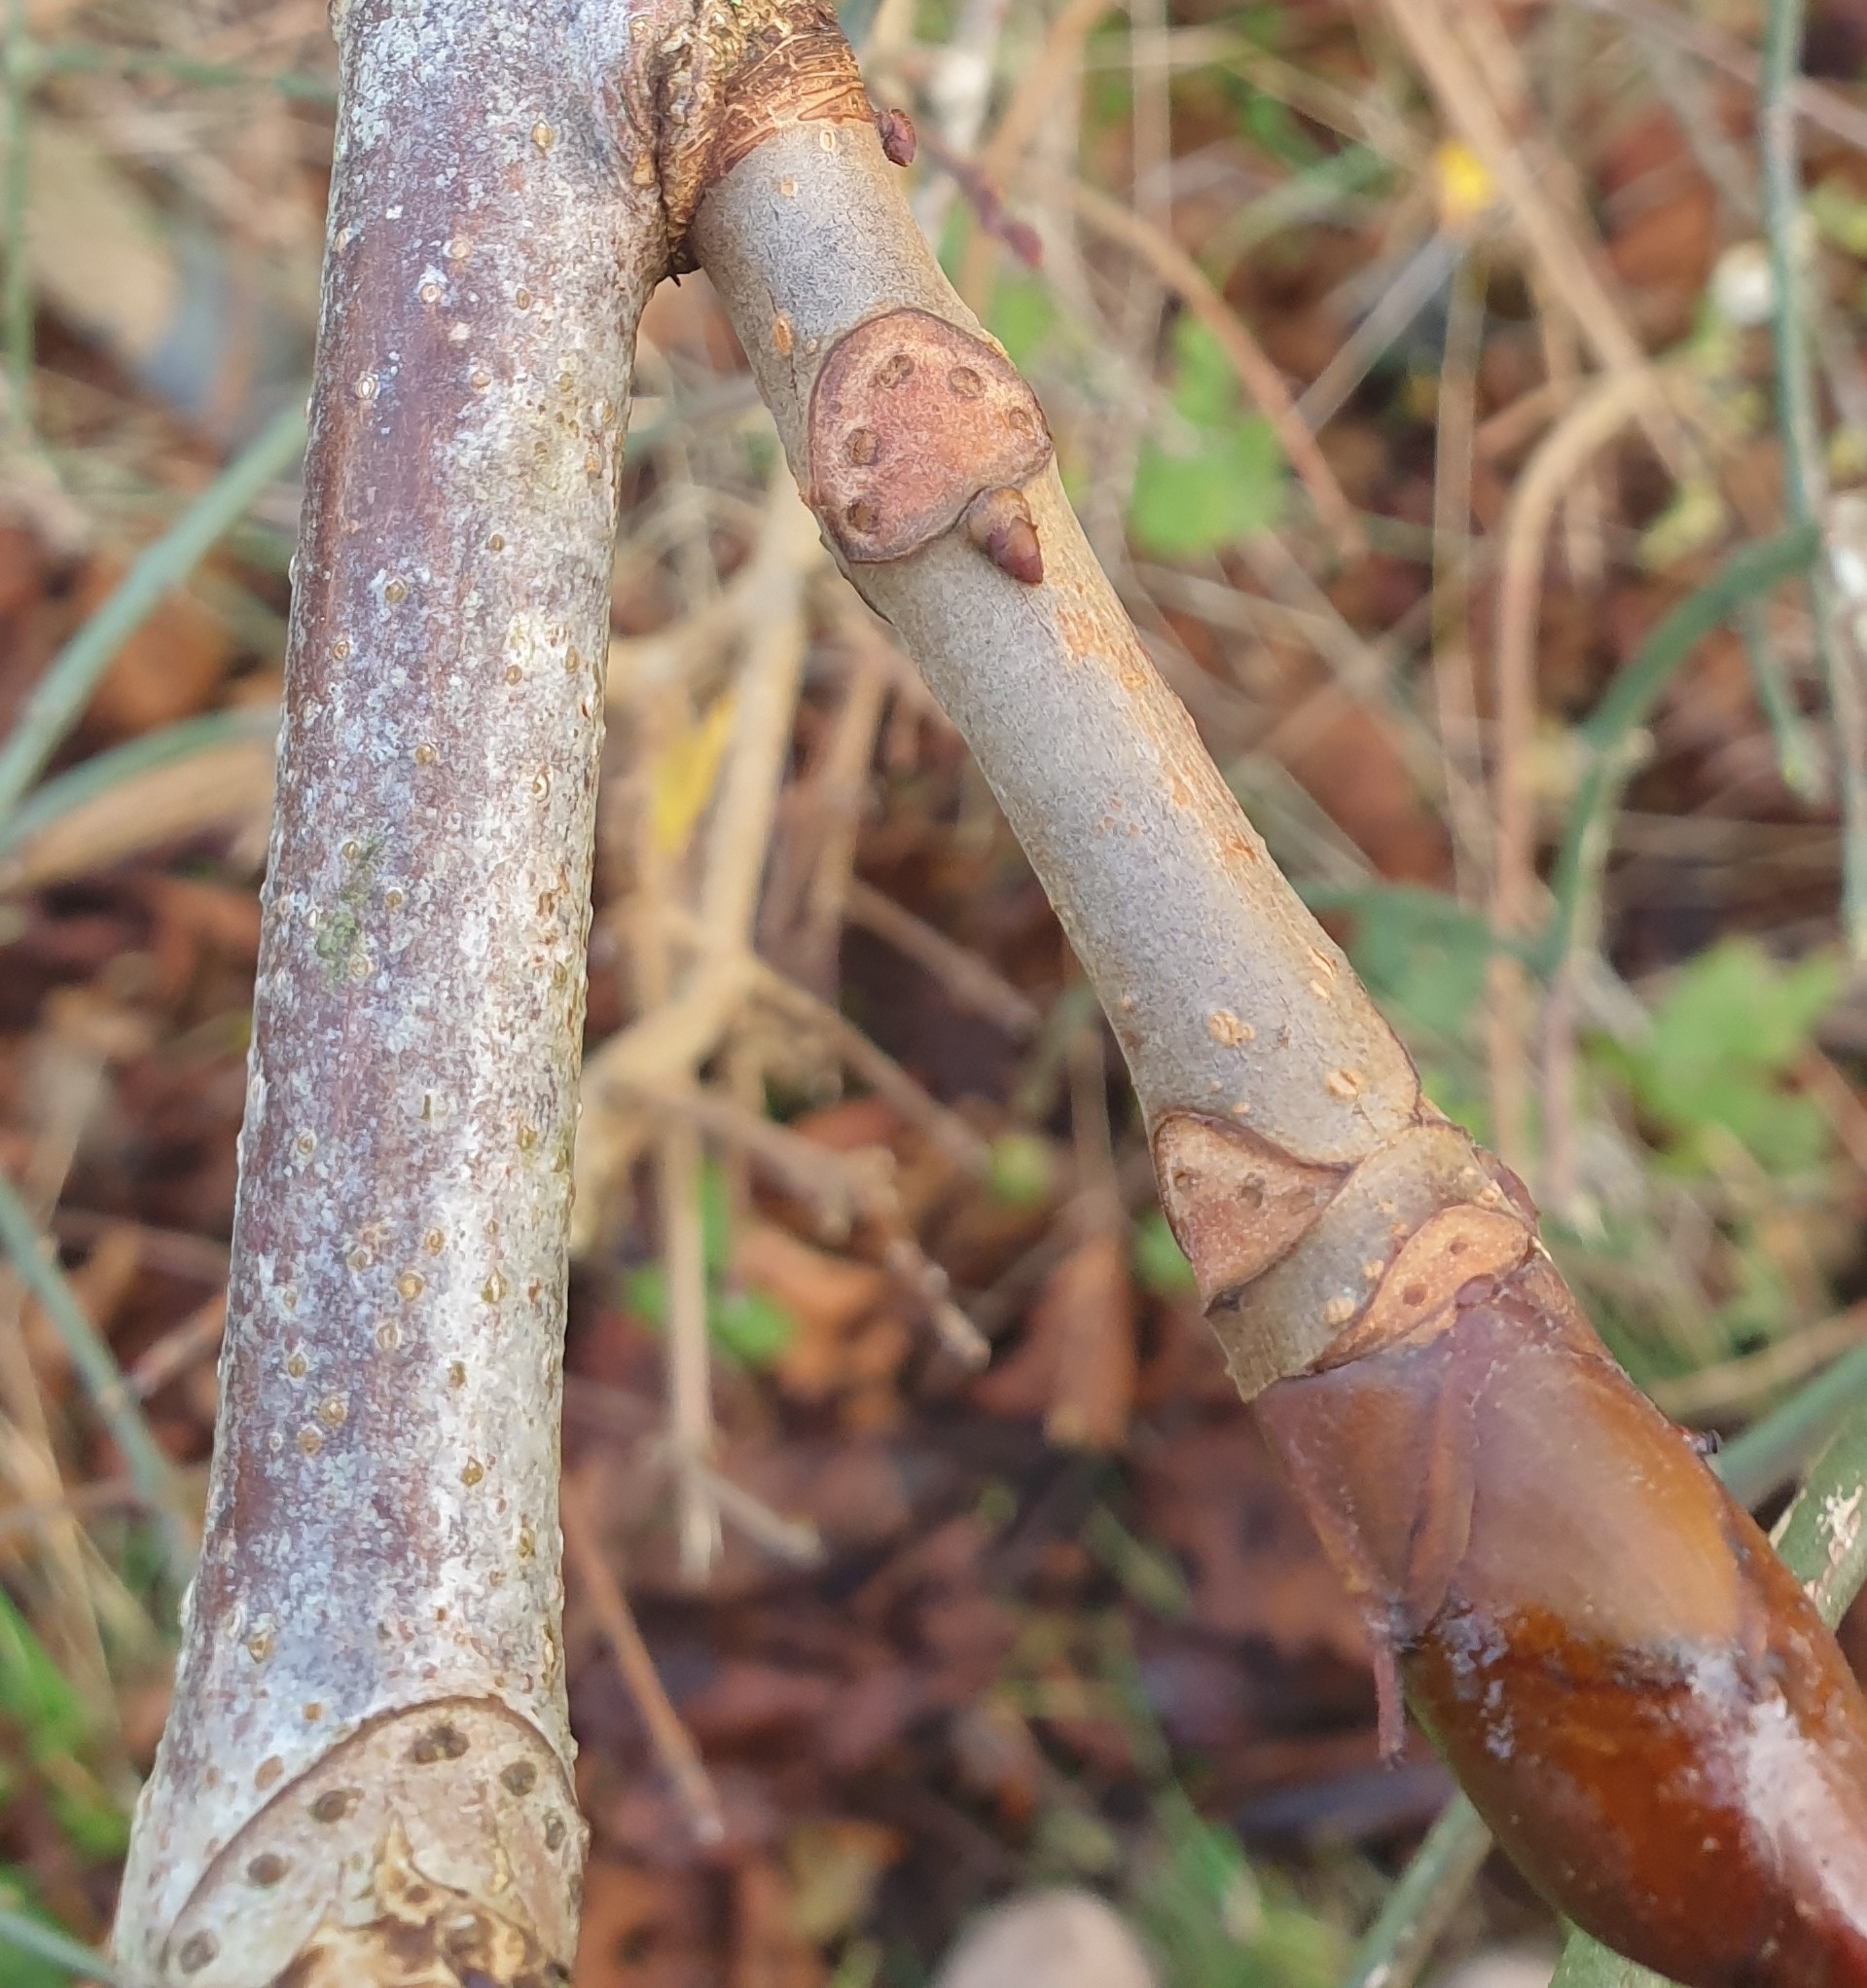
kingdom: Plantae
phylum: Tracheophyta
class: Magnoliopsida
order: Sapindales
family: Sapindaceae
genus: Aesculus
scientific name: Aesculus hippocastanum
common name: Horse-chestnut
